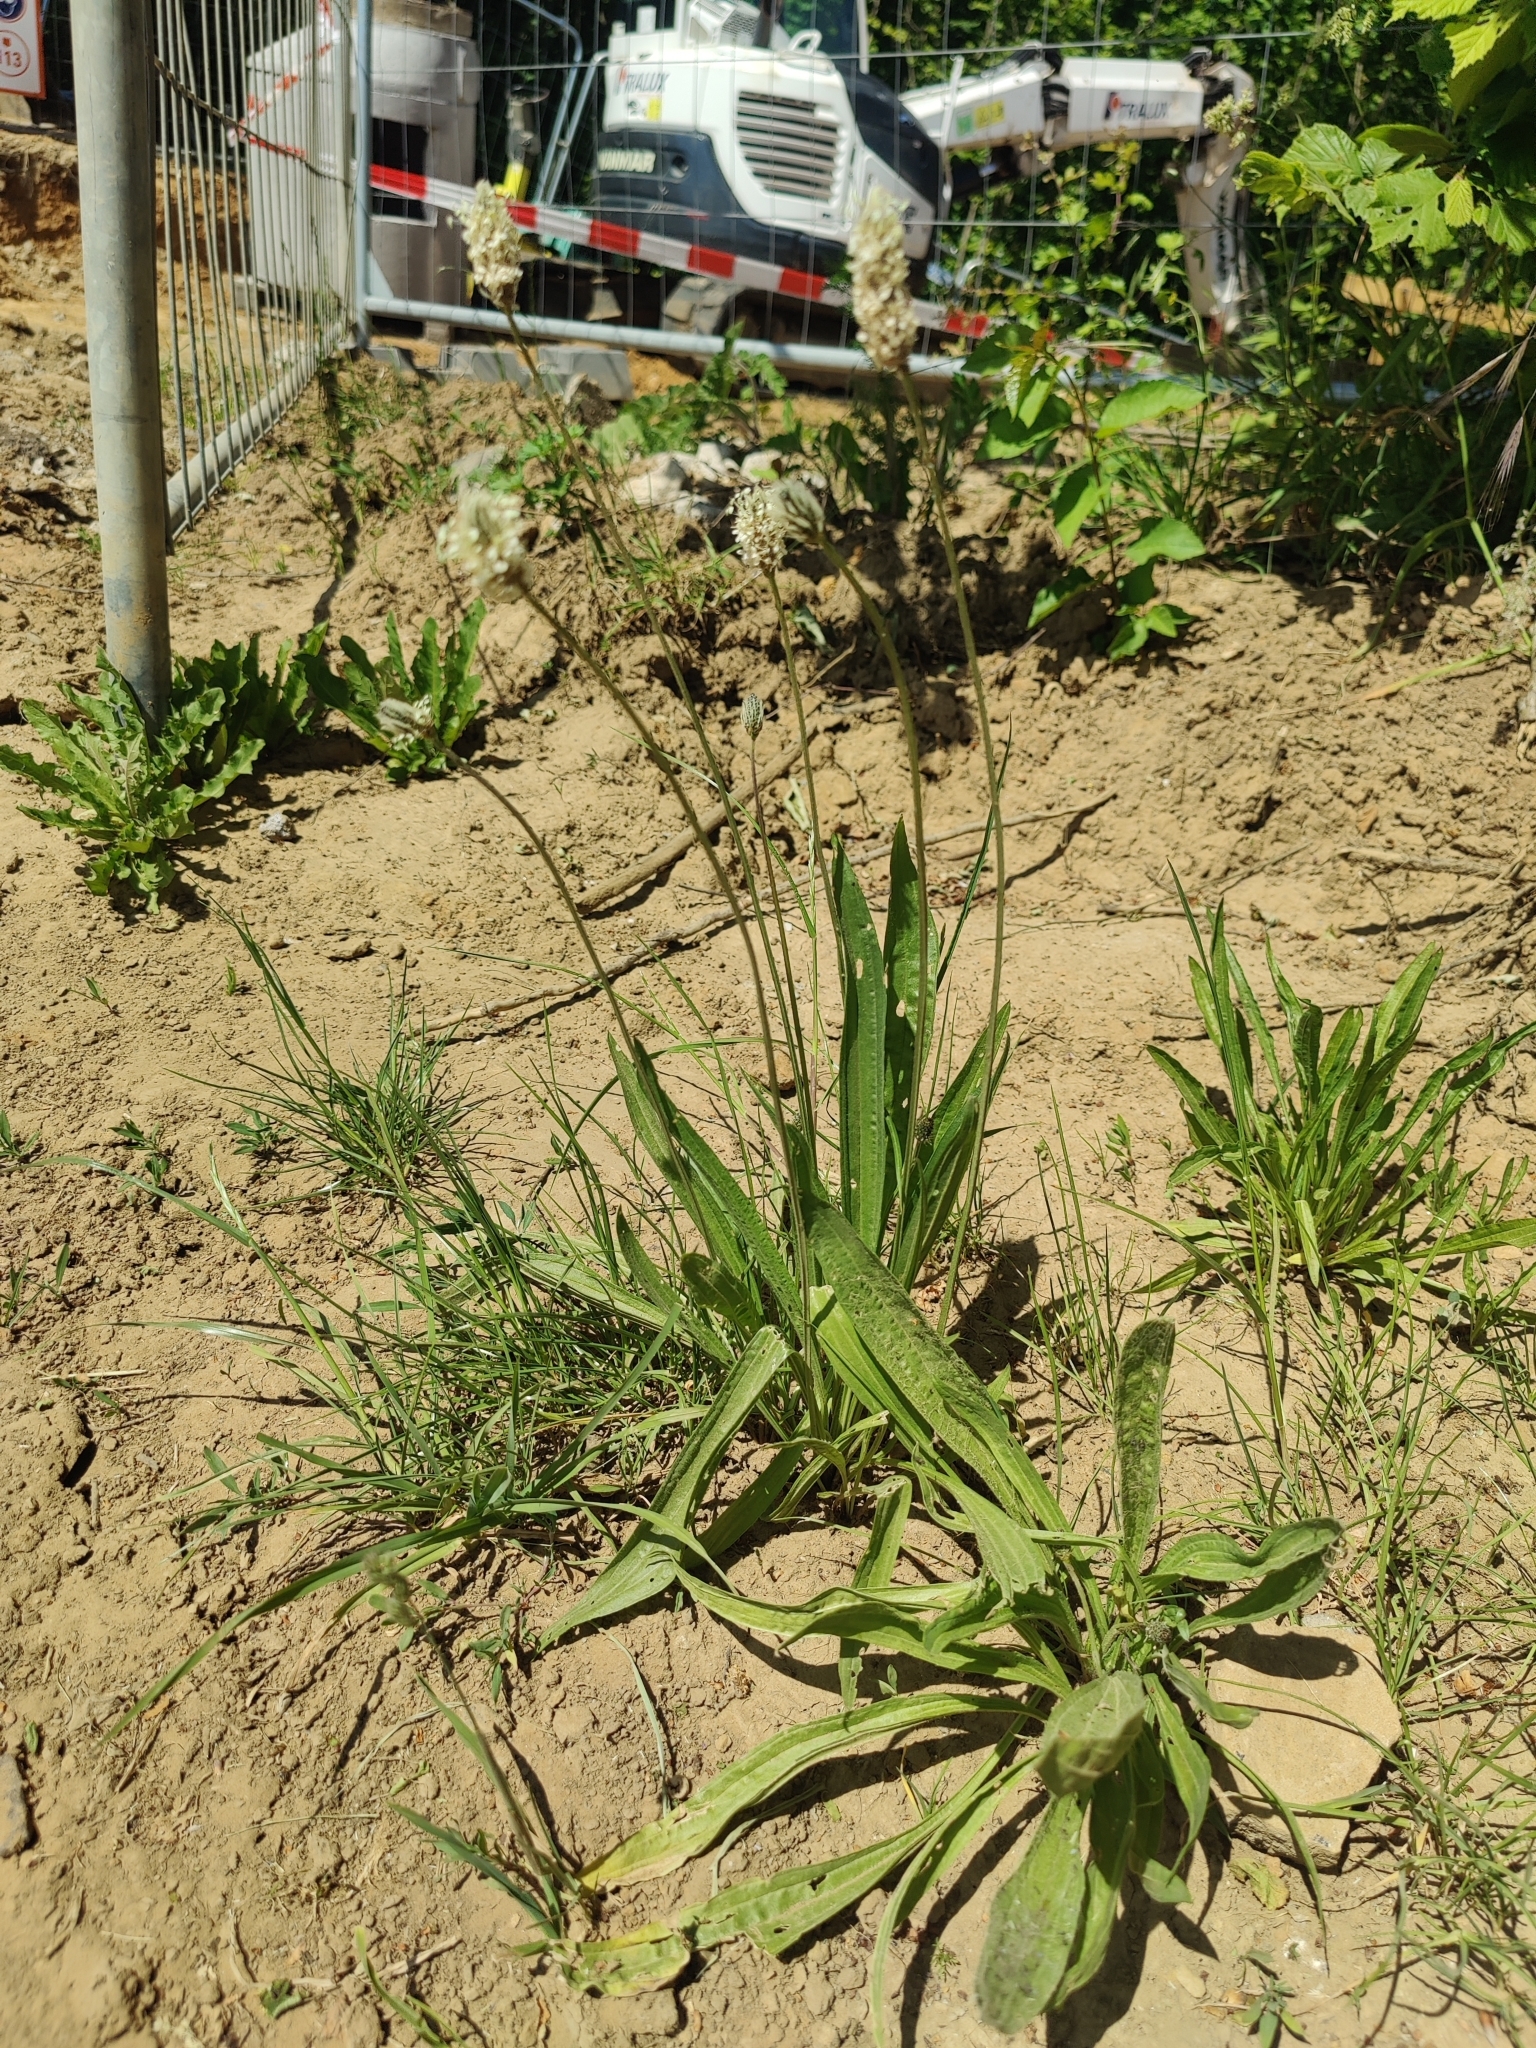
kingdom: Plantae
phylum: Tracheophyta
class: Magnoliopsida
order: Lamiales
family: Plantaginaceae
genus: Plantago
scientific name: Plantago lanceolata
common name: Ribwort plantain
